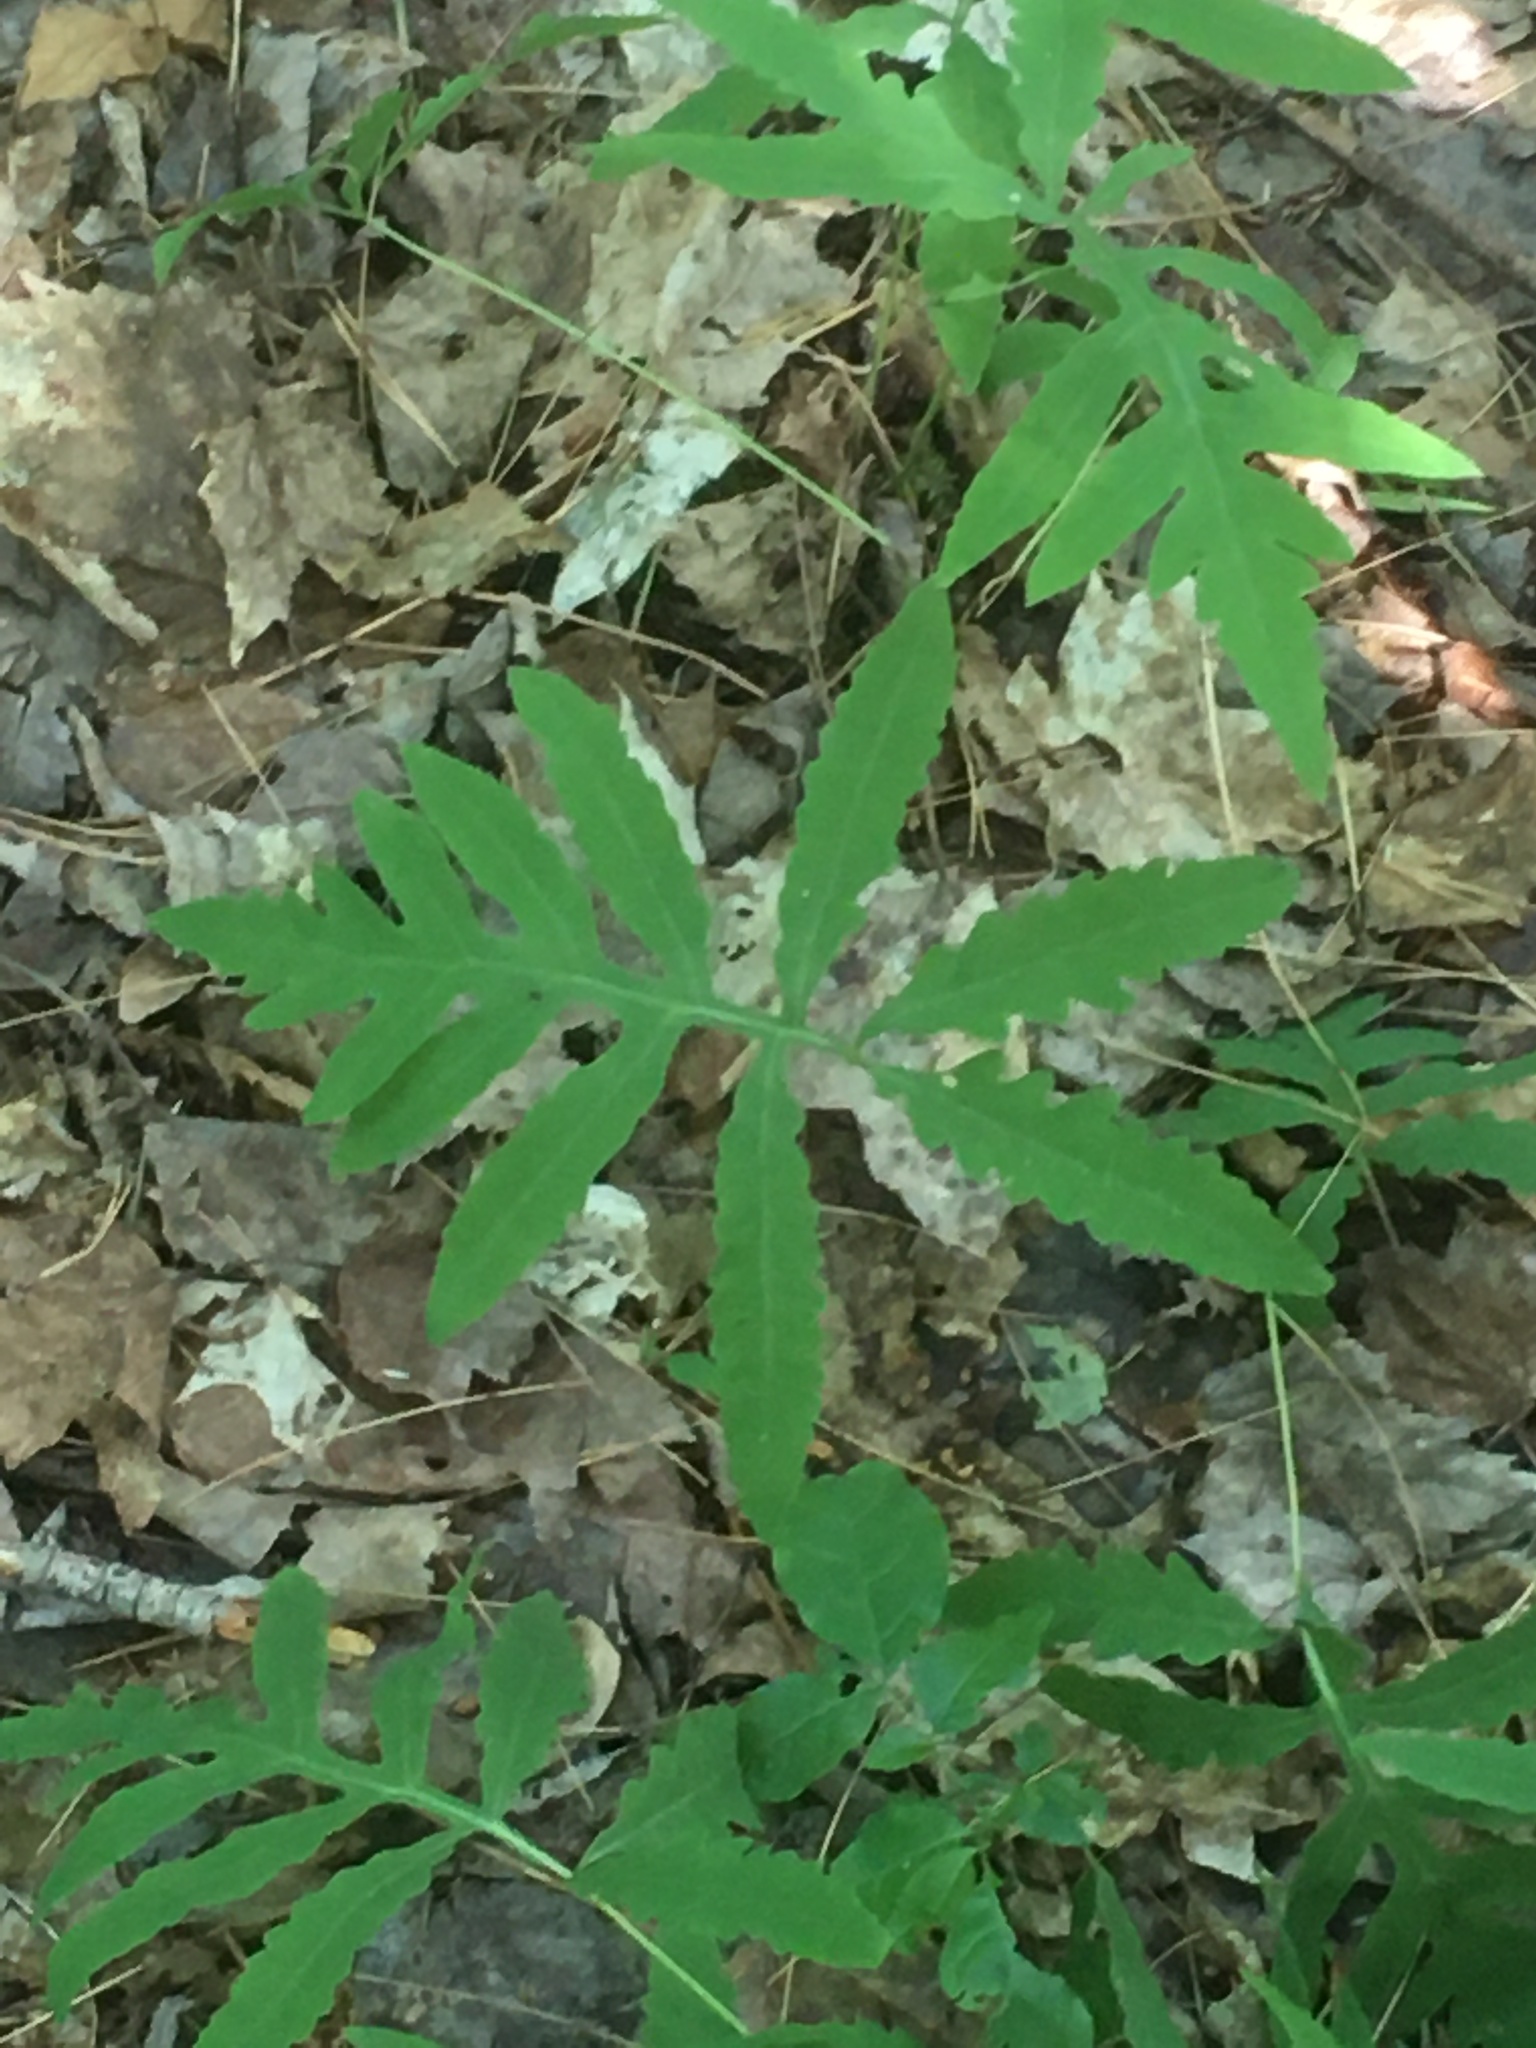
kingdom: Plantae
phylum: Tracheophyta
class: Polypodiopsida
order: Polypodiales
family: Onocleaceae
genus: Onoclea
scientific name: Onoclea sensibilis
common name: Sensitive fern
